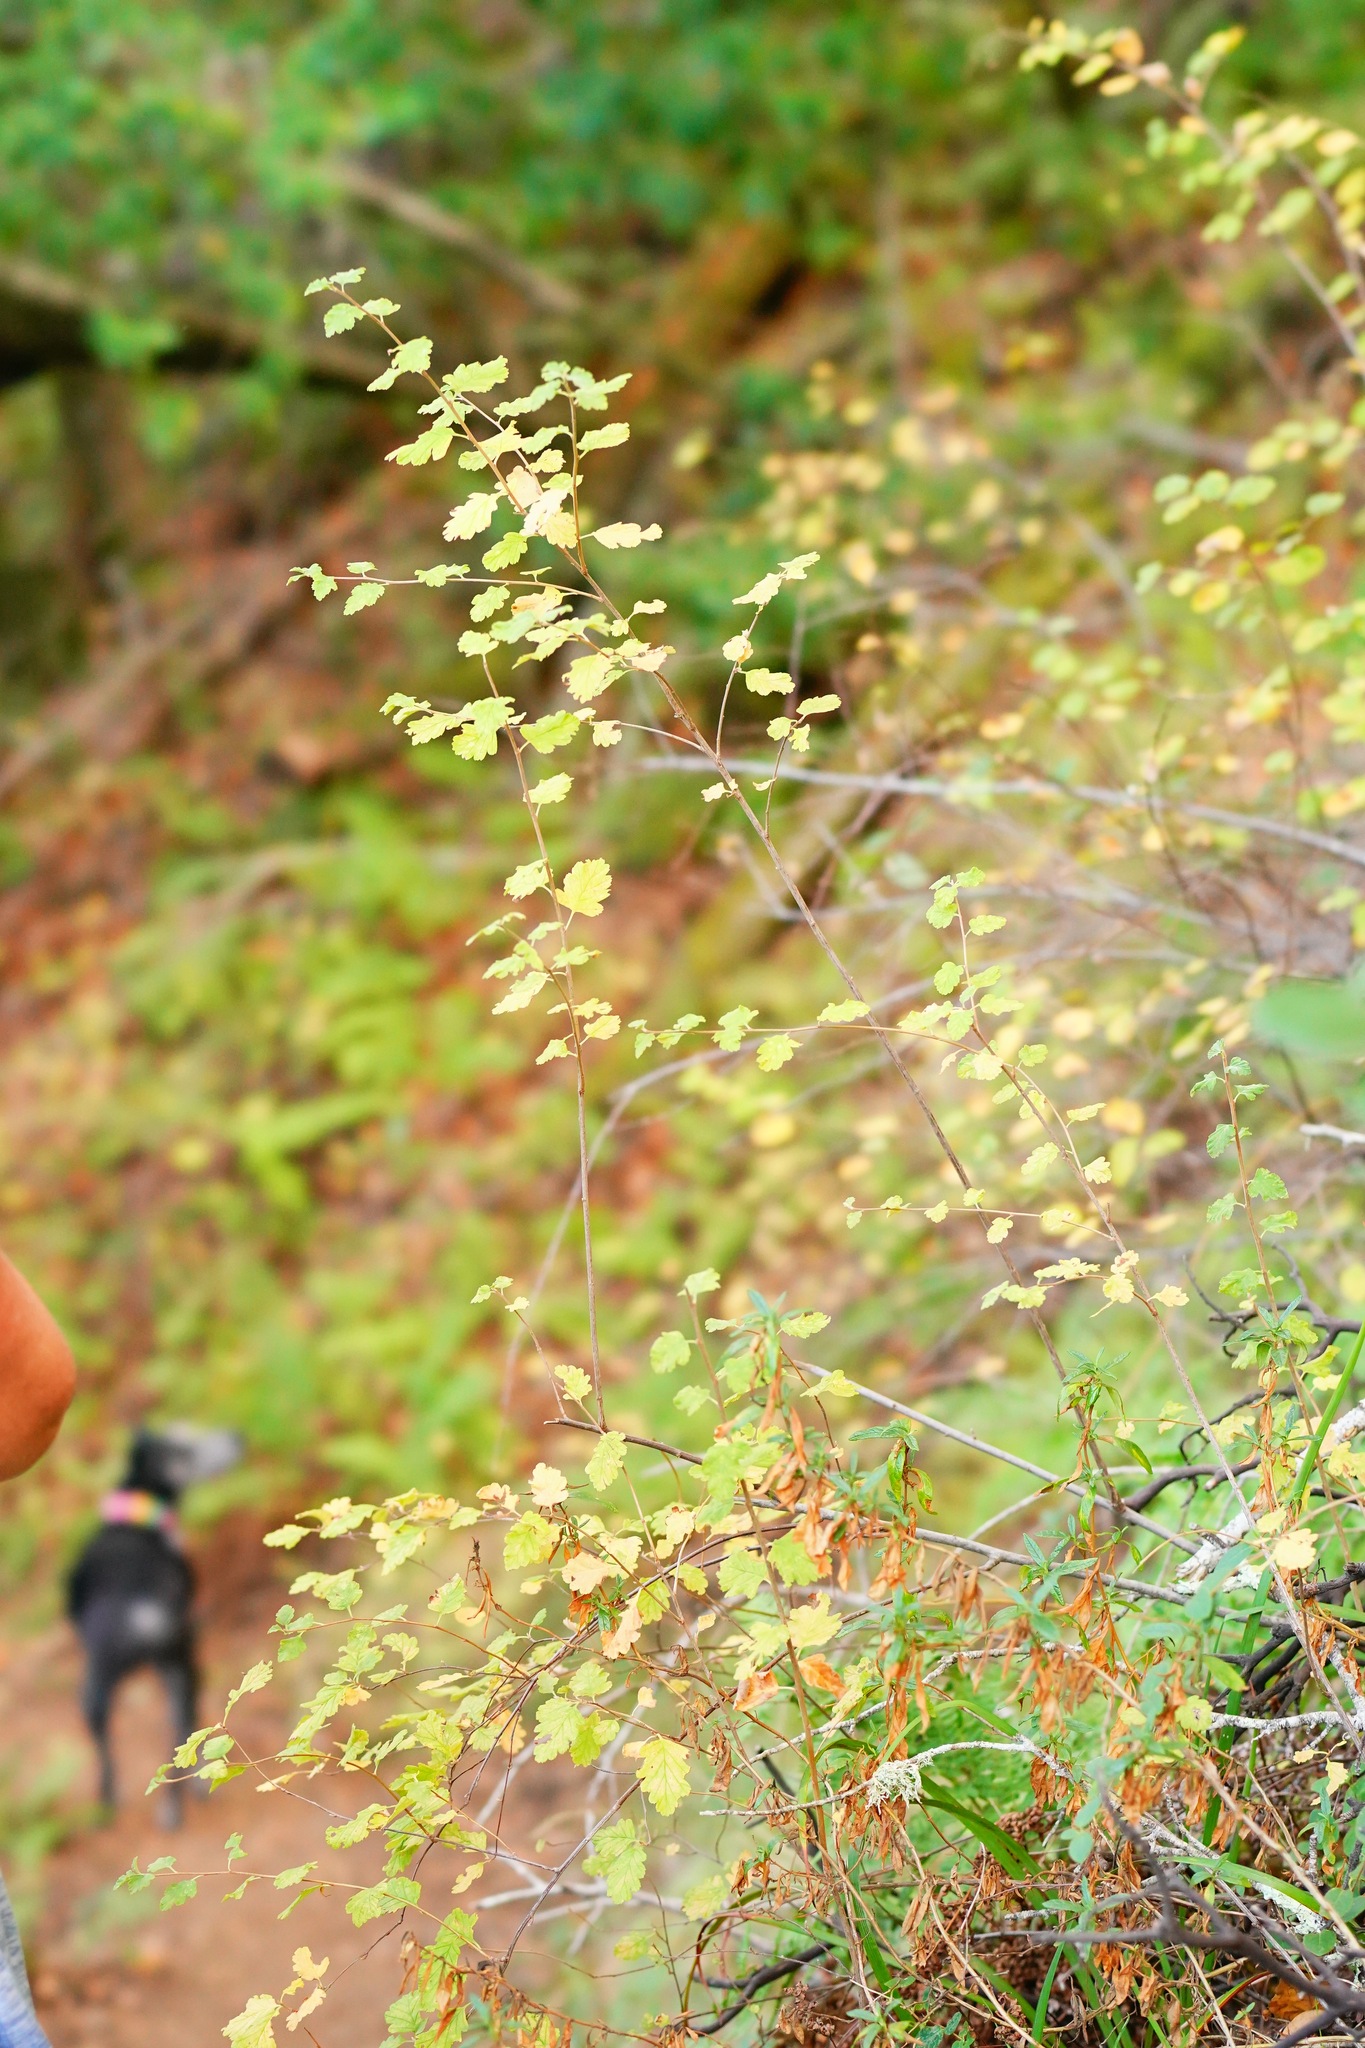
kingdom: Plantae
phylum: Tracheophyta
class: Magnoliopsida
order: Rosales
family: Rosaceae
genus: Holodiscus
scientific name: Holodiscus discolor
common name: Oceanspray
